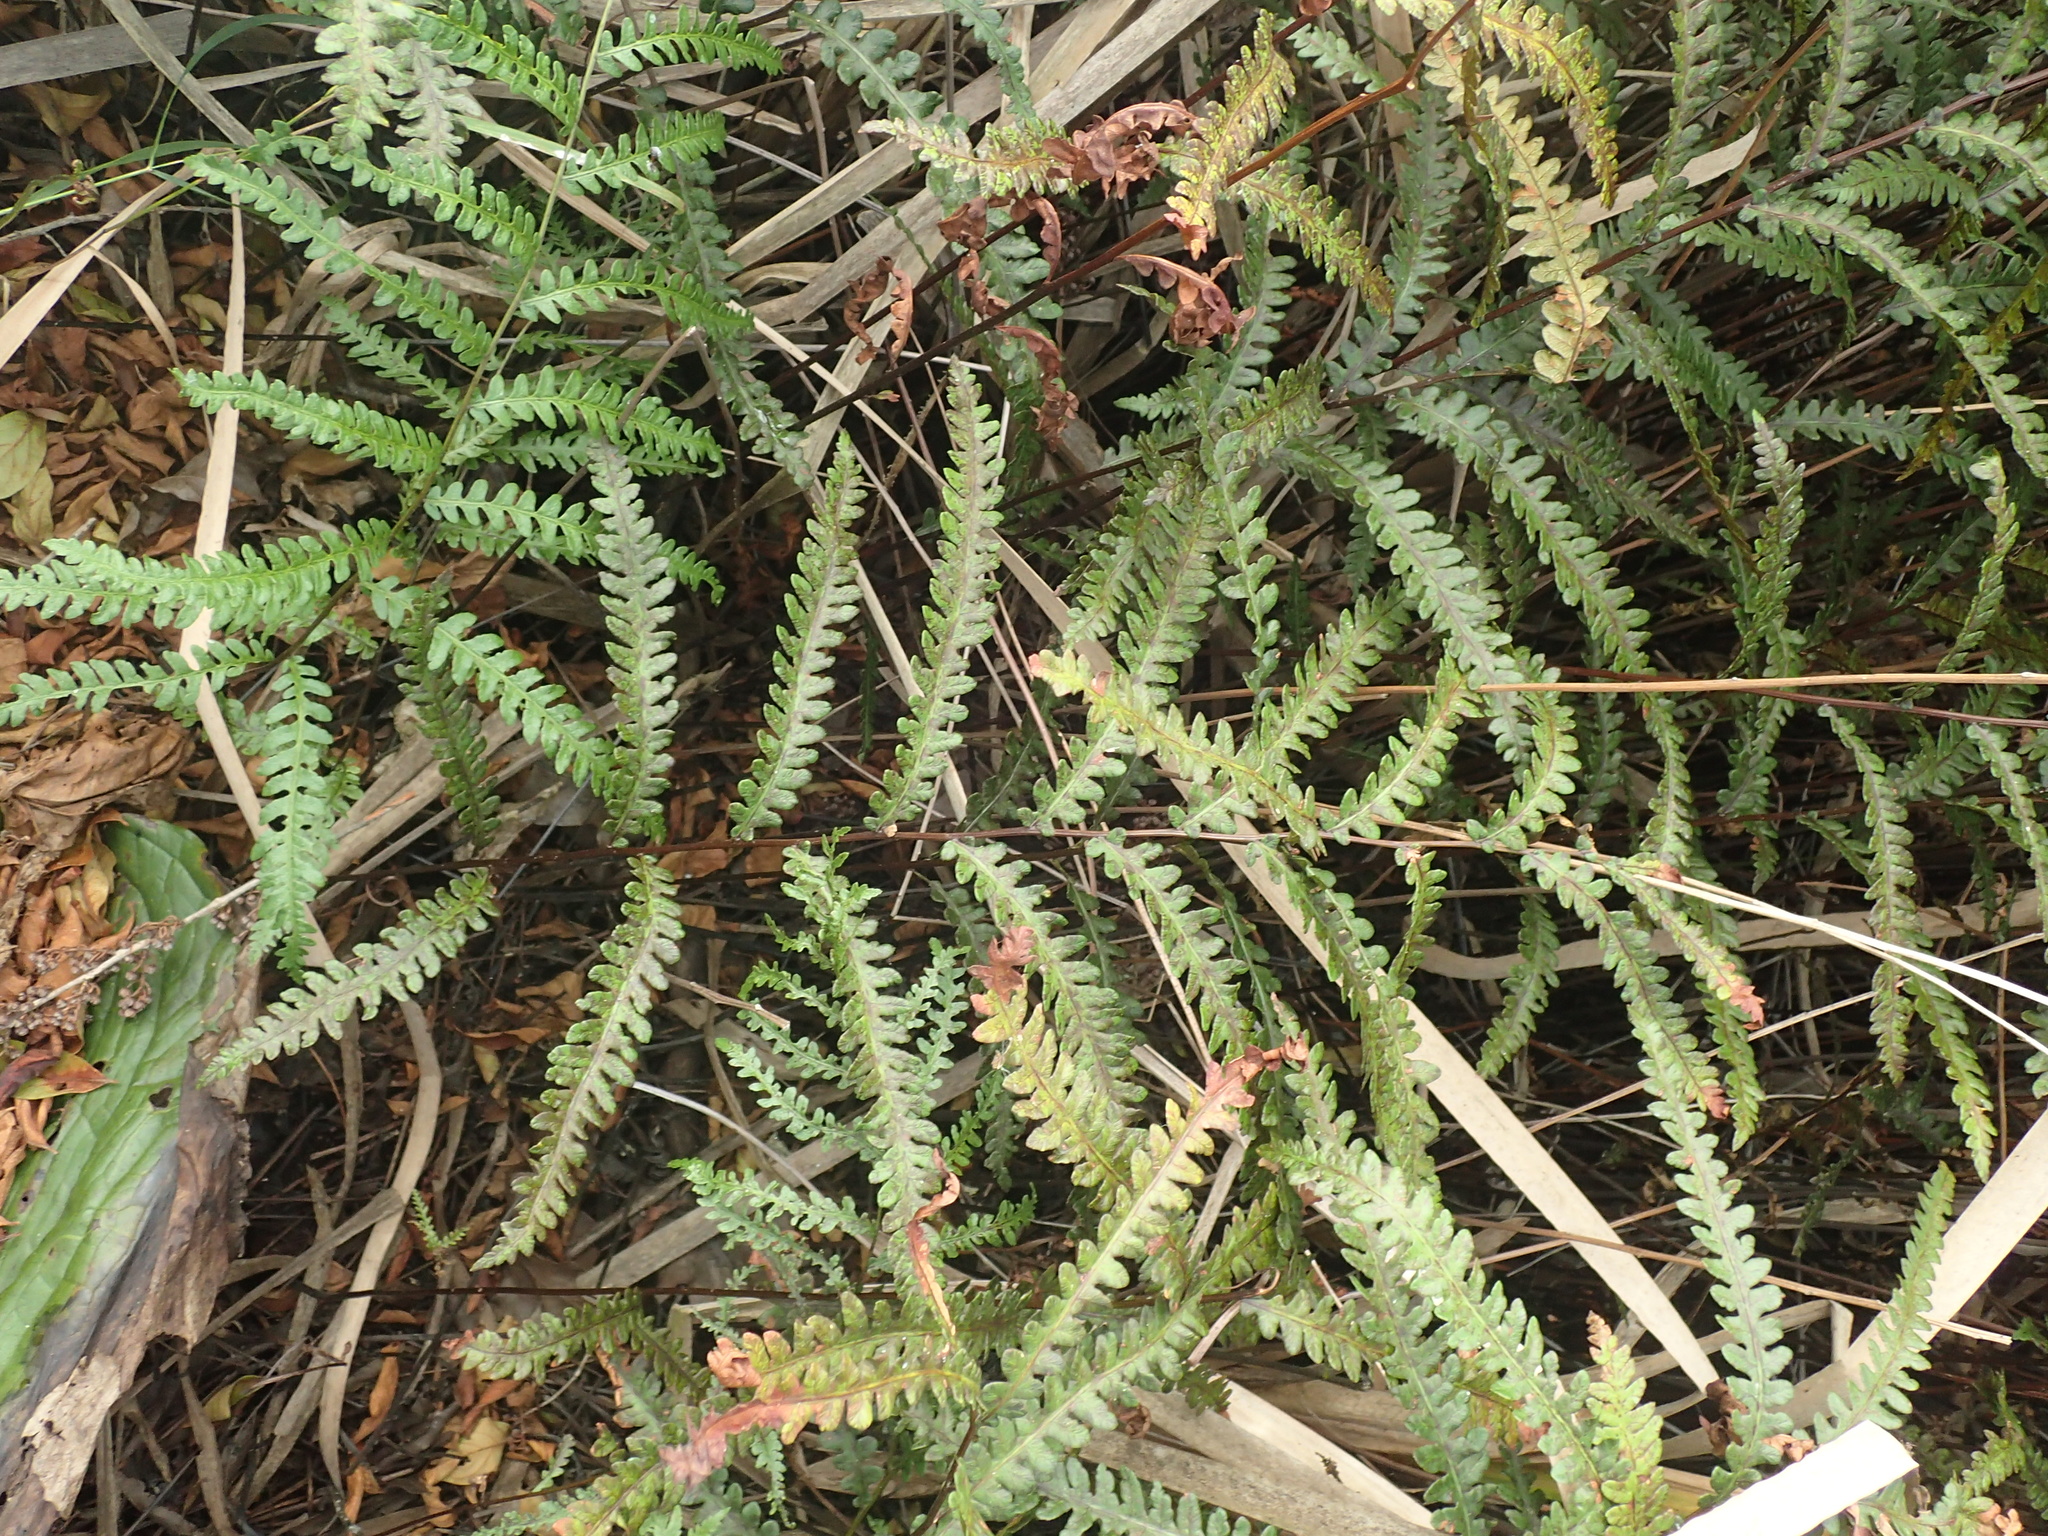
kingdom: Plantae
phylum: Tracheophyta
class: Polypodiopsida
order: Polypodiales
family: Blechnaceae
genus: Anchistea
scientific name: Anchistea virginica
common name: Virginia chain fern
